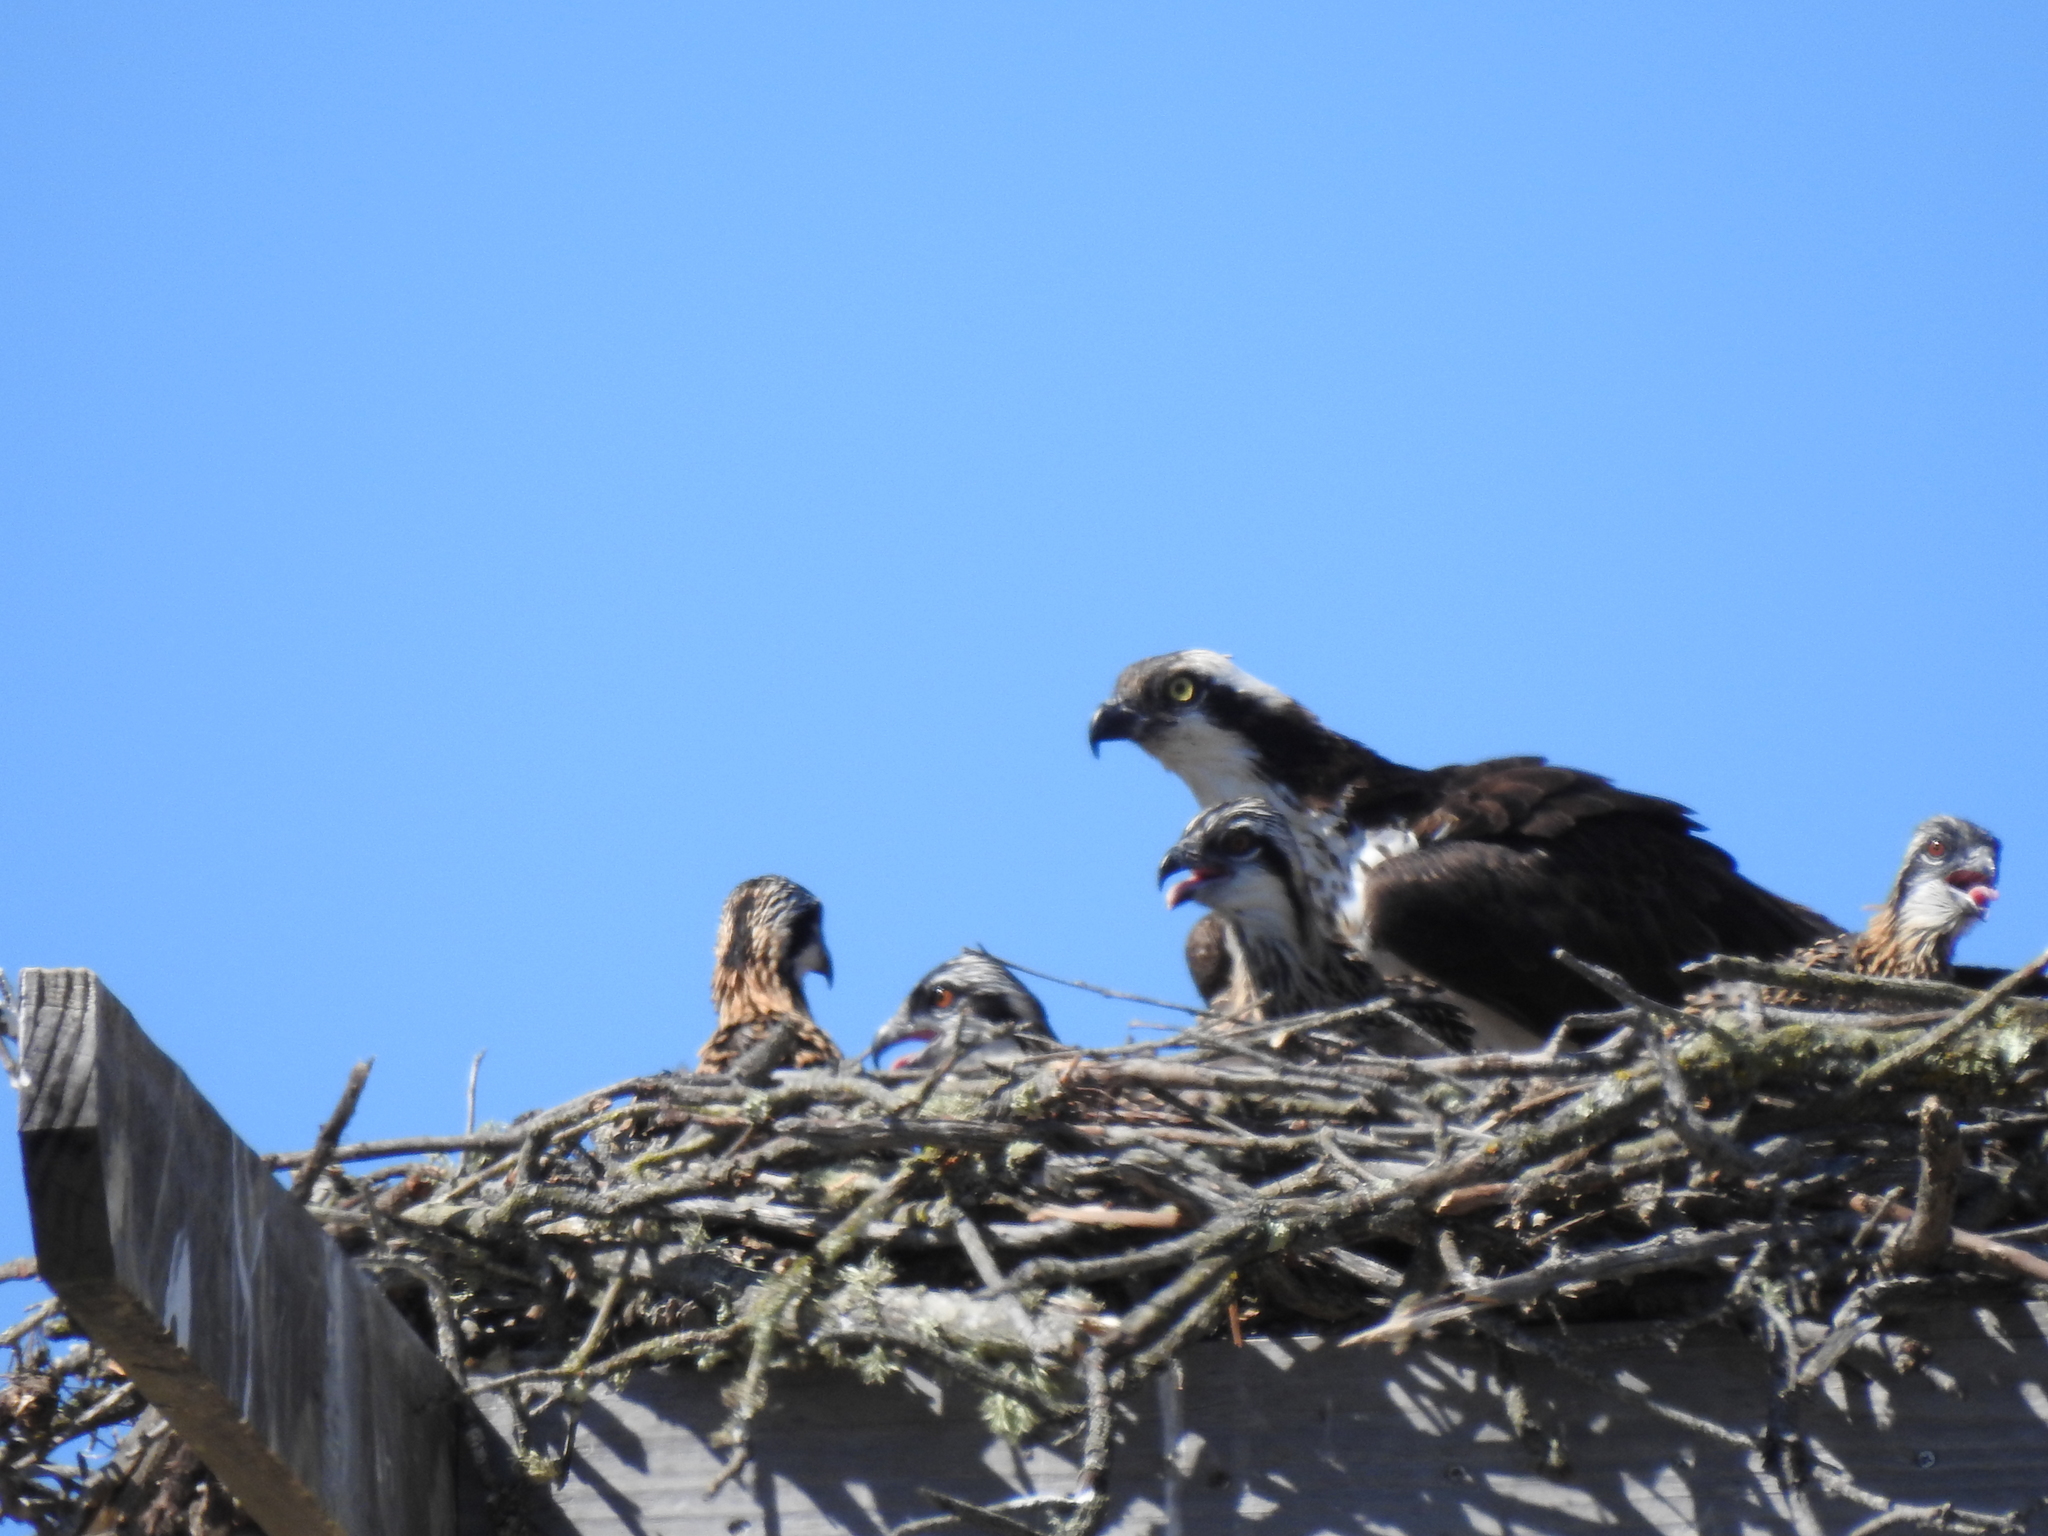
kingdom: Animalia
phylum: Chordata
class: Aves
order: Accipitriformes
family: Pandionidae
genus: Pandion
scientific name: Pandion haliaetus
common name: Osprey
